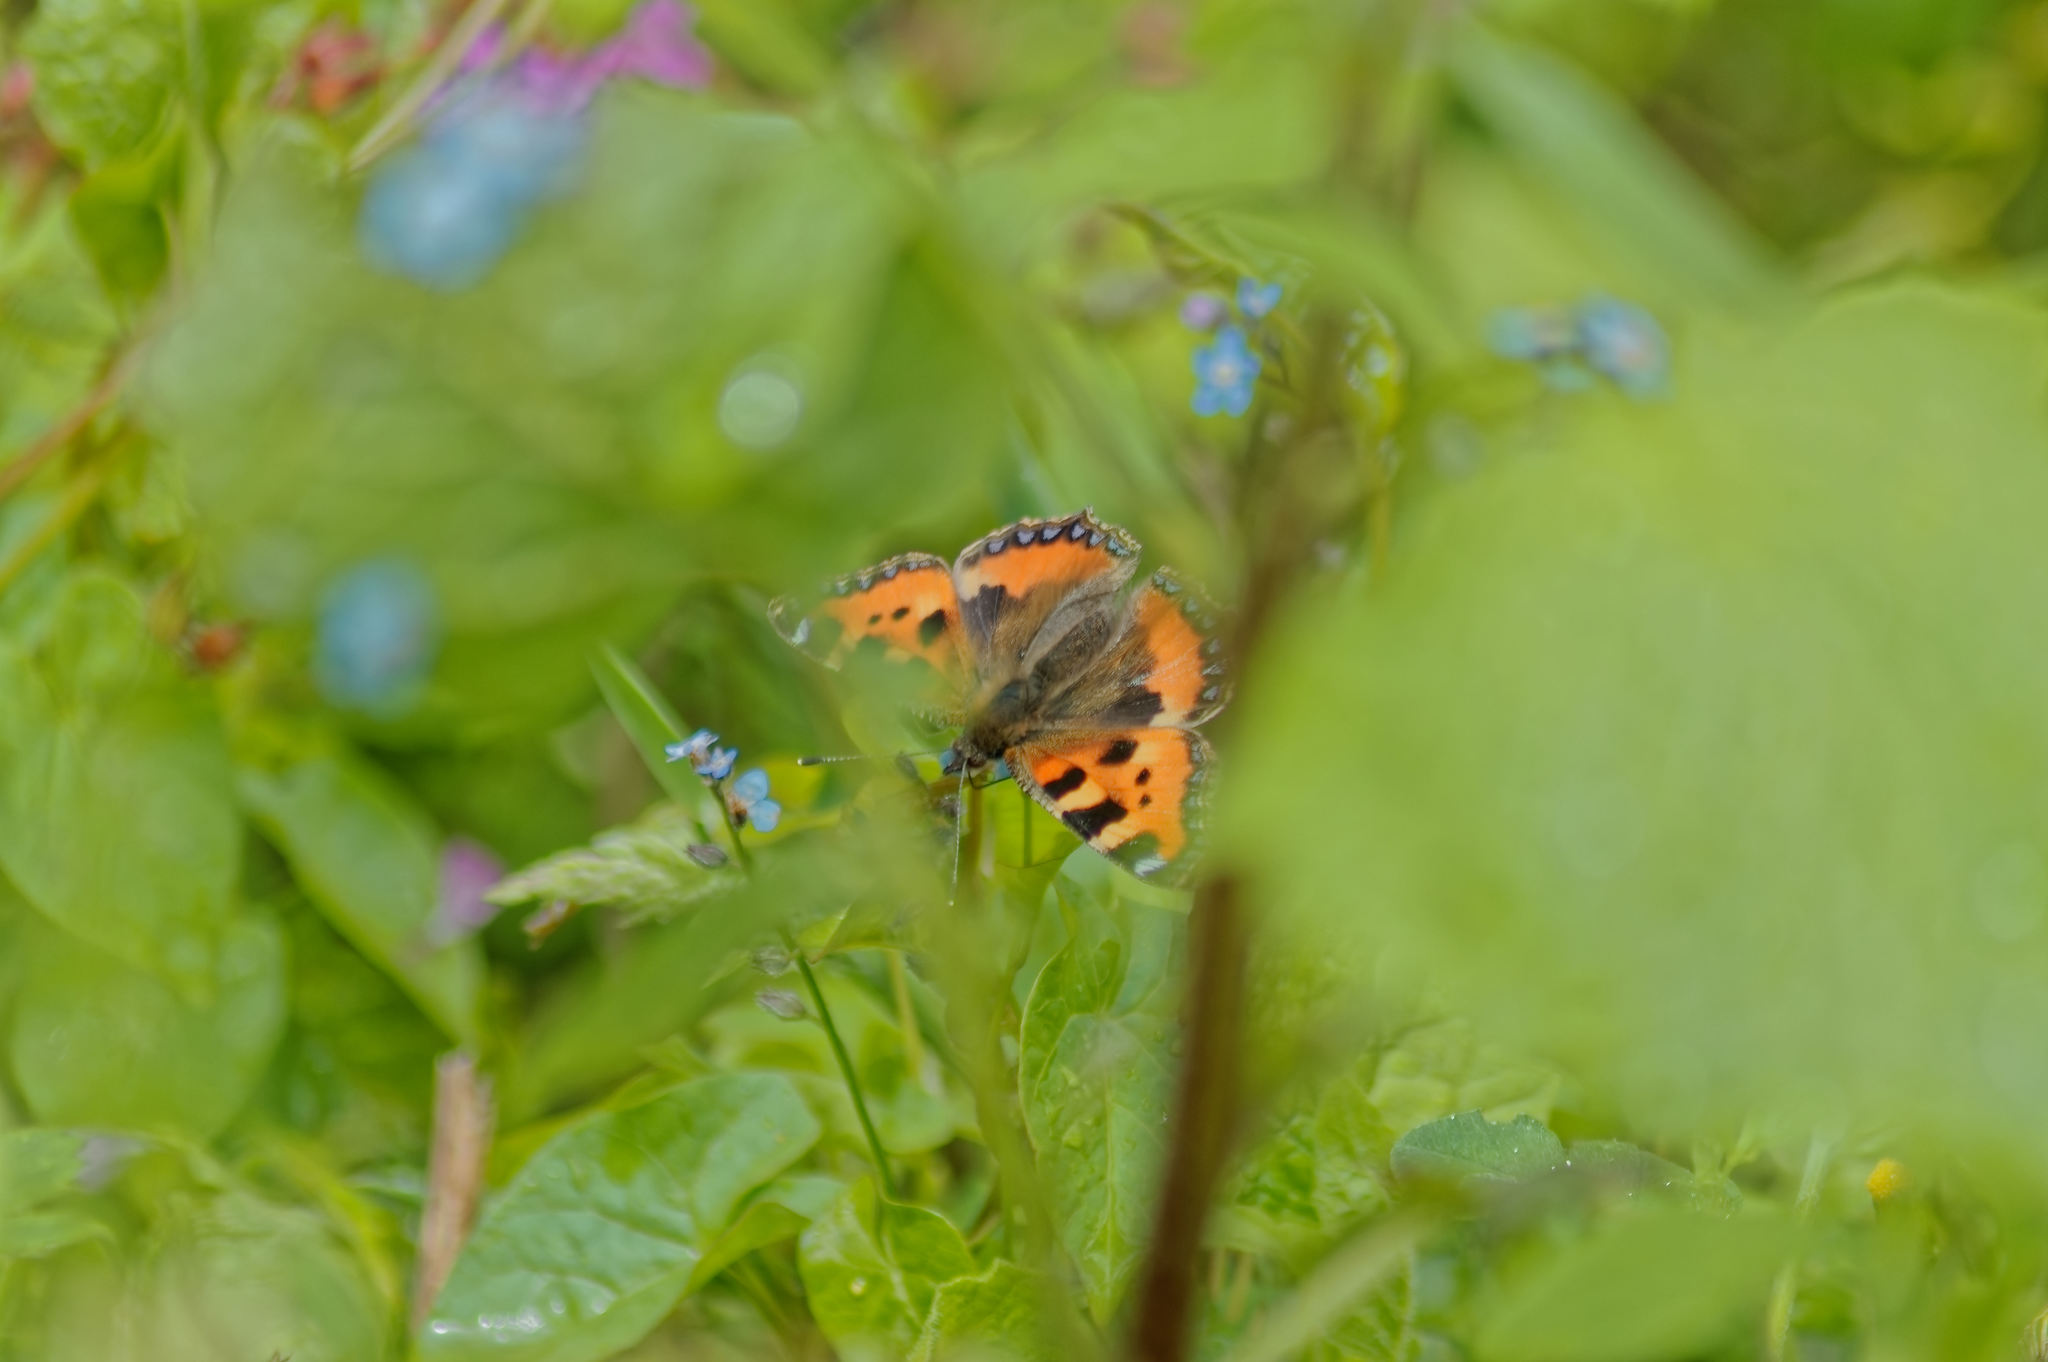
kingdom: Animalia
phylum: Arthropoda
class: Insecta
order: Lepidoptera
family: Nymphalidae
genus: Aglais
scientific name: Aglais urticae
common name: Small tortoiseshell
